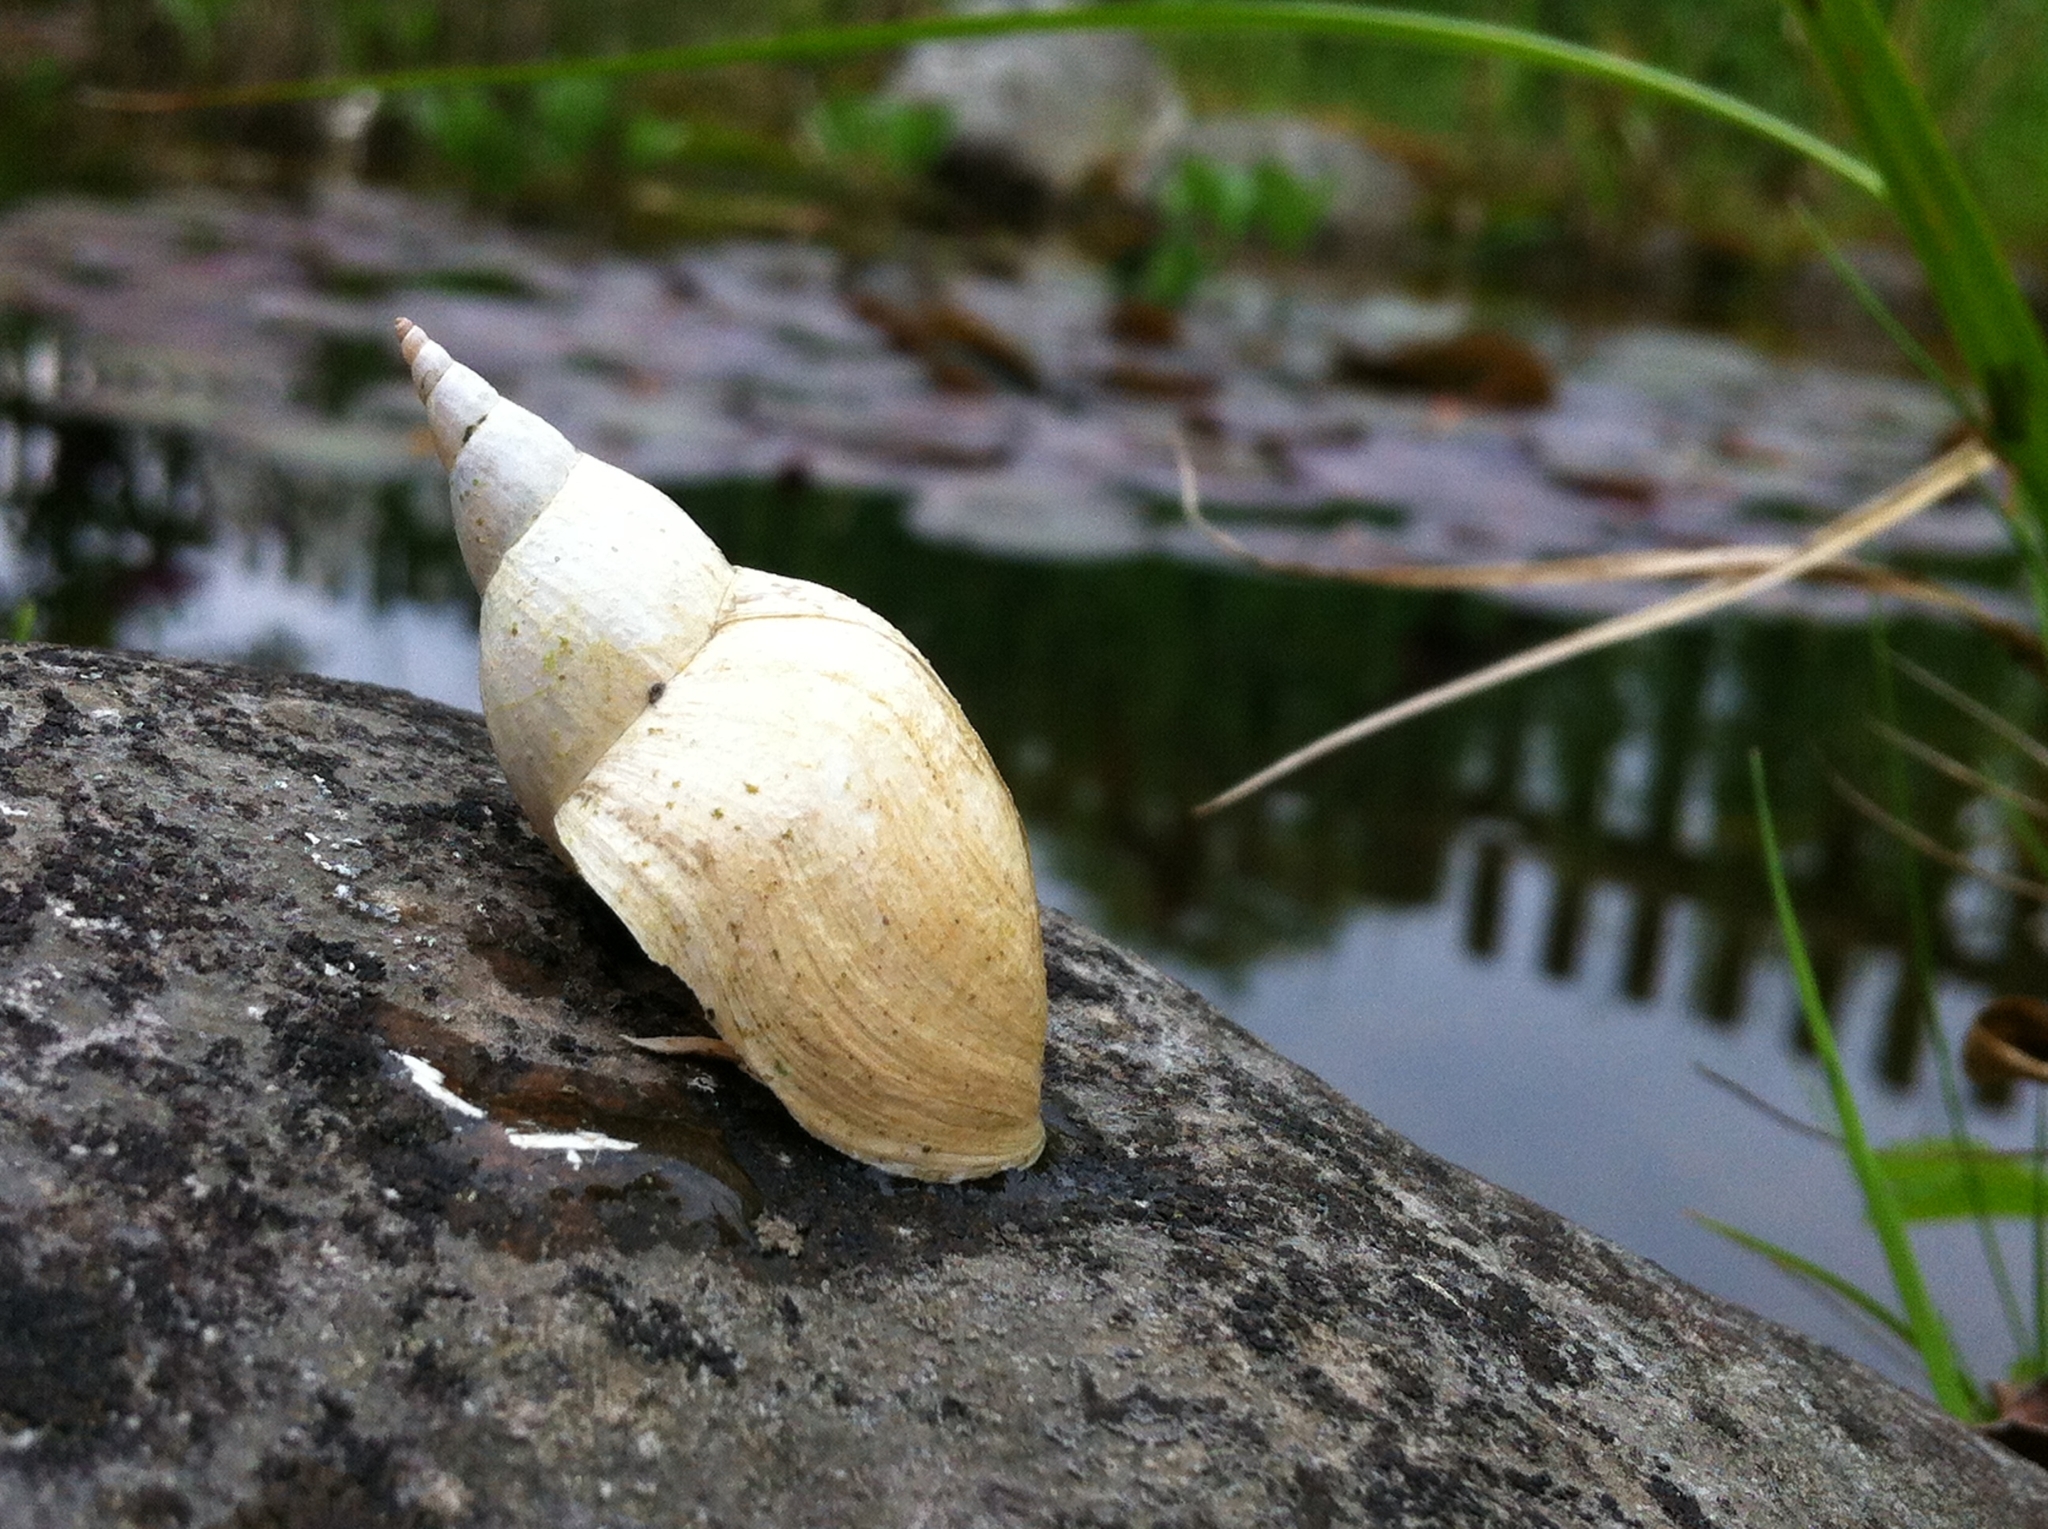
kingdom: Animalia
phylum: Mollusca
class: Gastropoda
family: Lymnaeidae
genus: Lymnaea
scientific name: Lymnaea stagnalis
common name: Great pond snail
